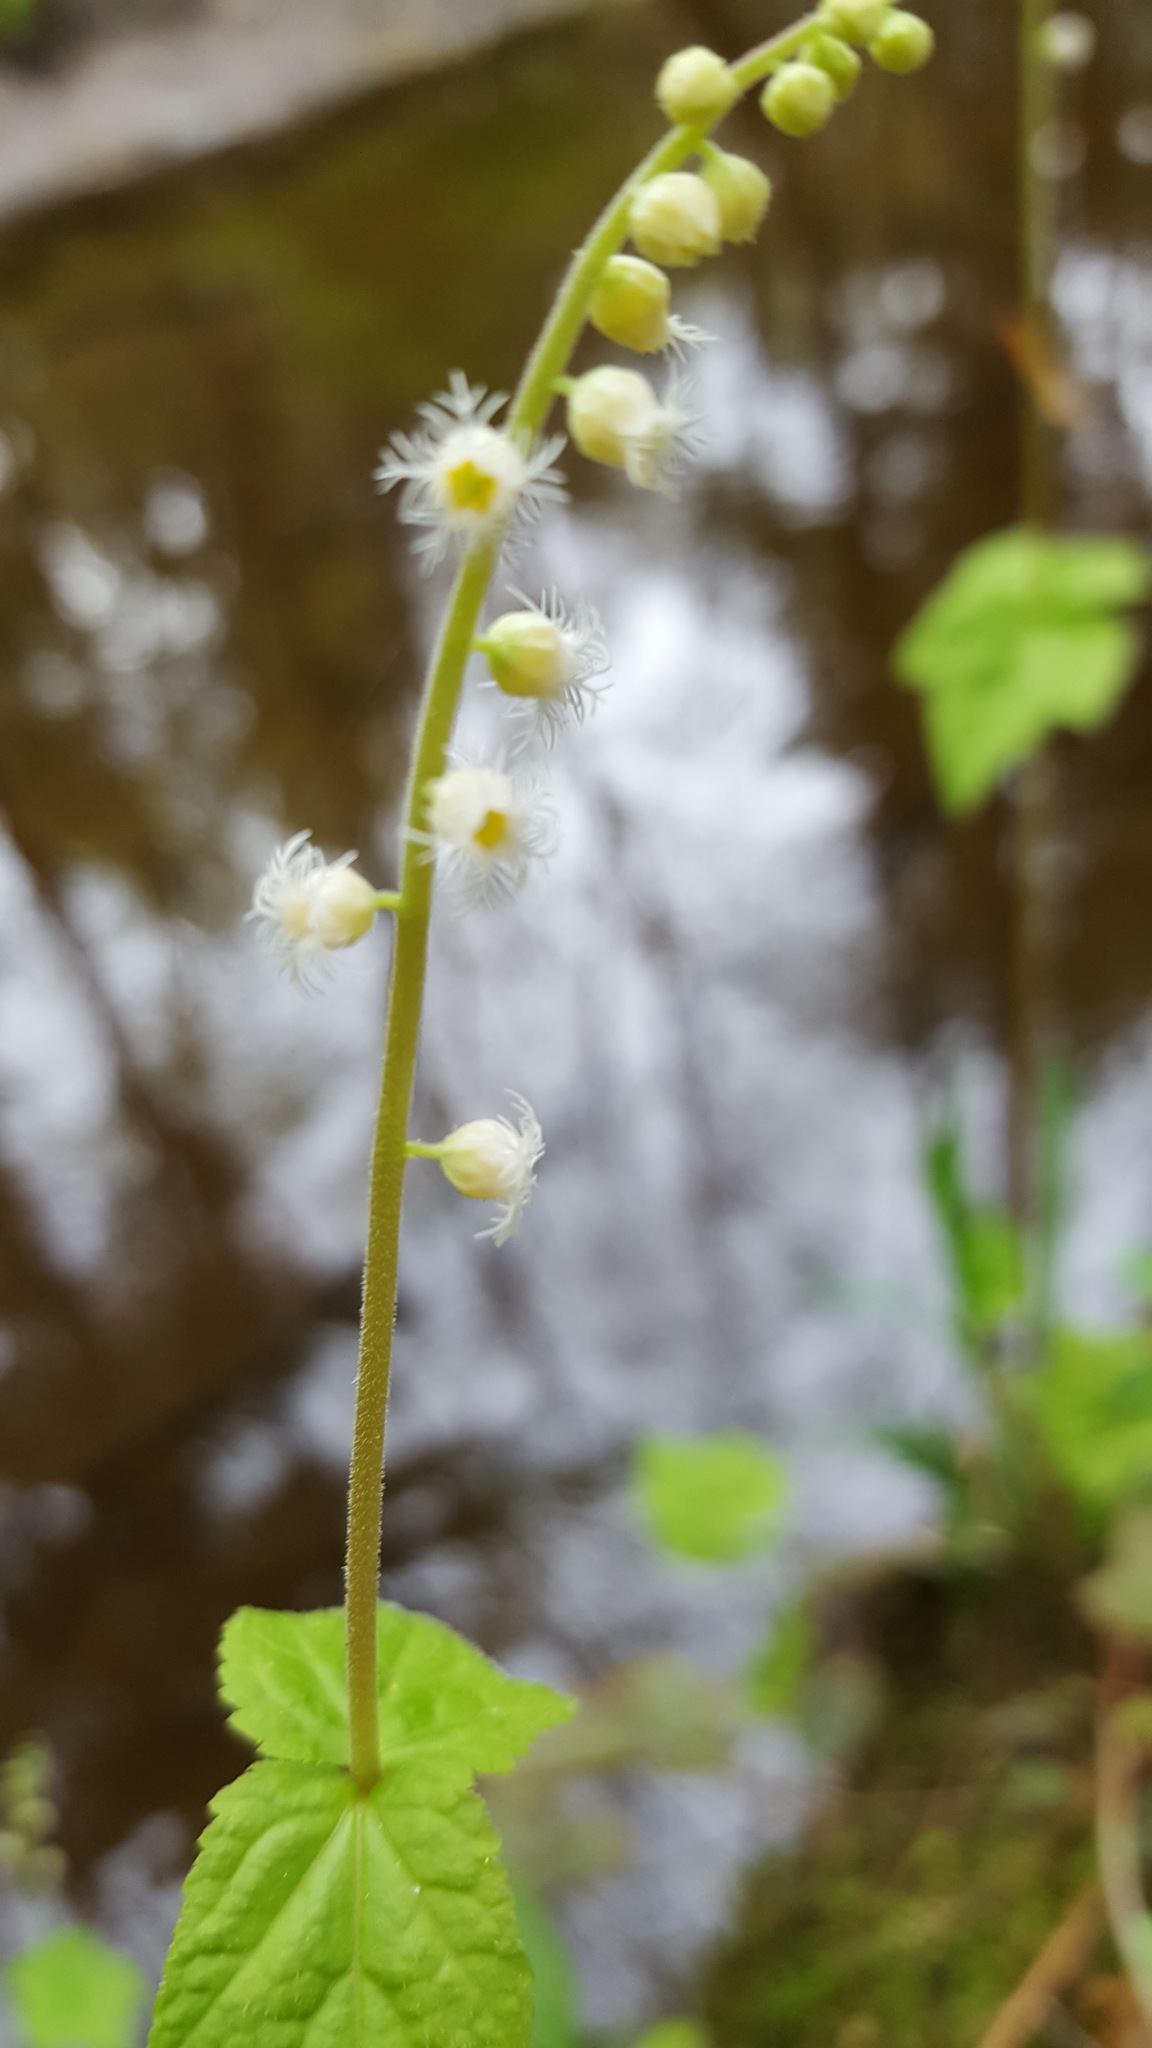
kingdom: Plantae
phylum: Tracheophyta
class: Magnoliopsida
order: Saxifragales
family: Saxifragaceae
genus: Mitella
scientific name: Mitella diphylla
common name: Coolwort
